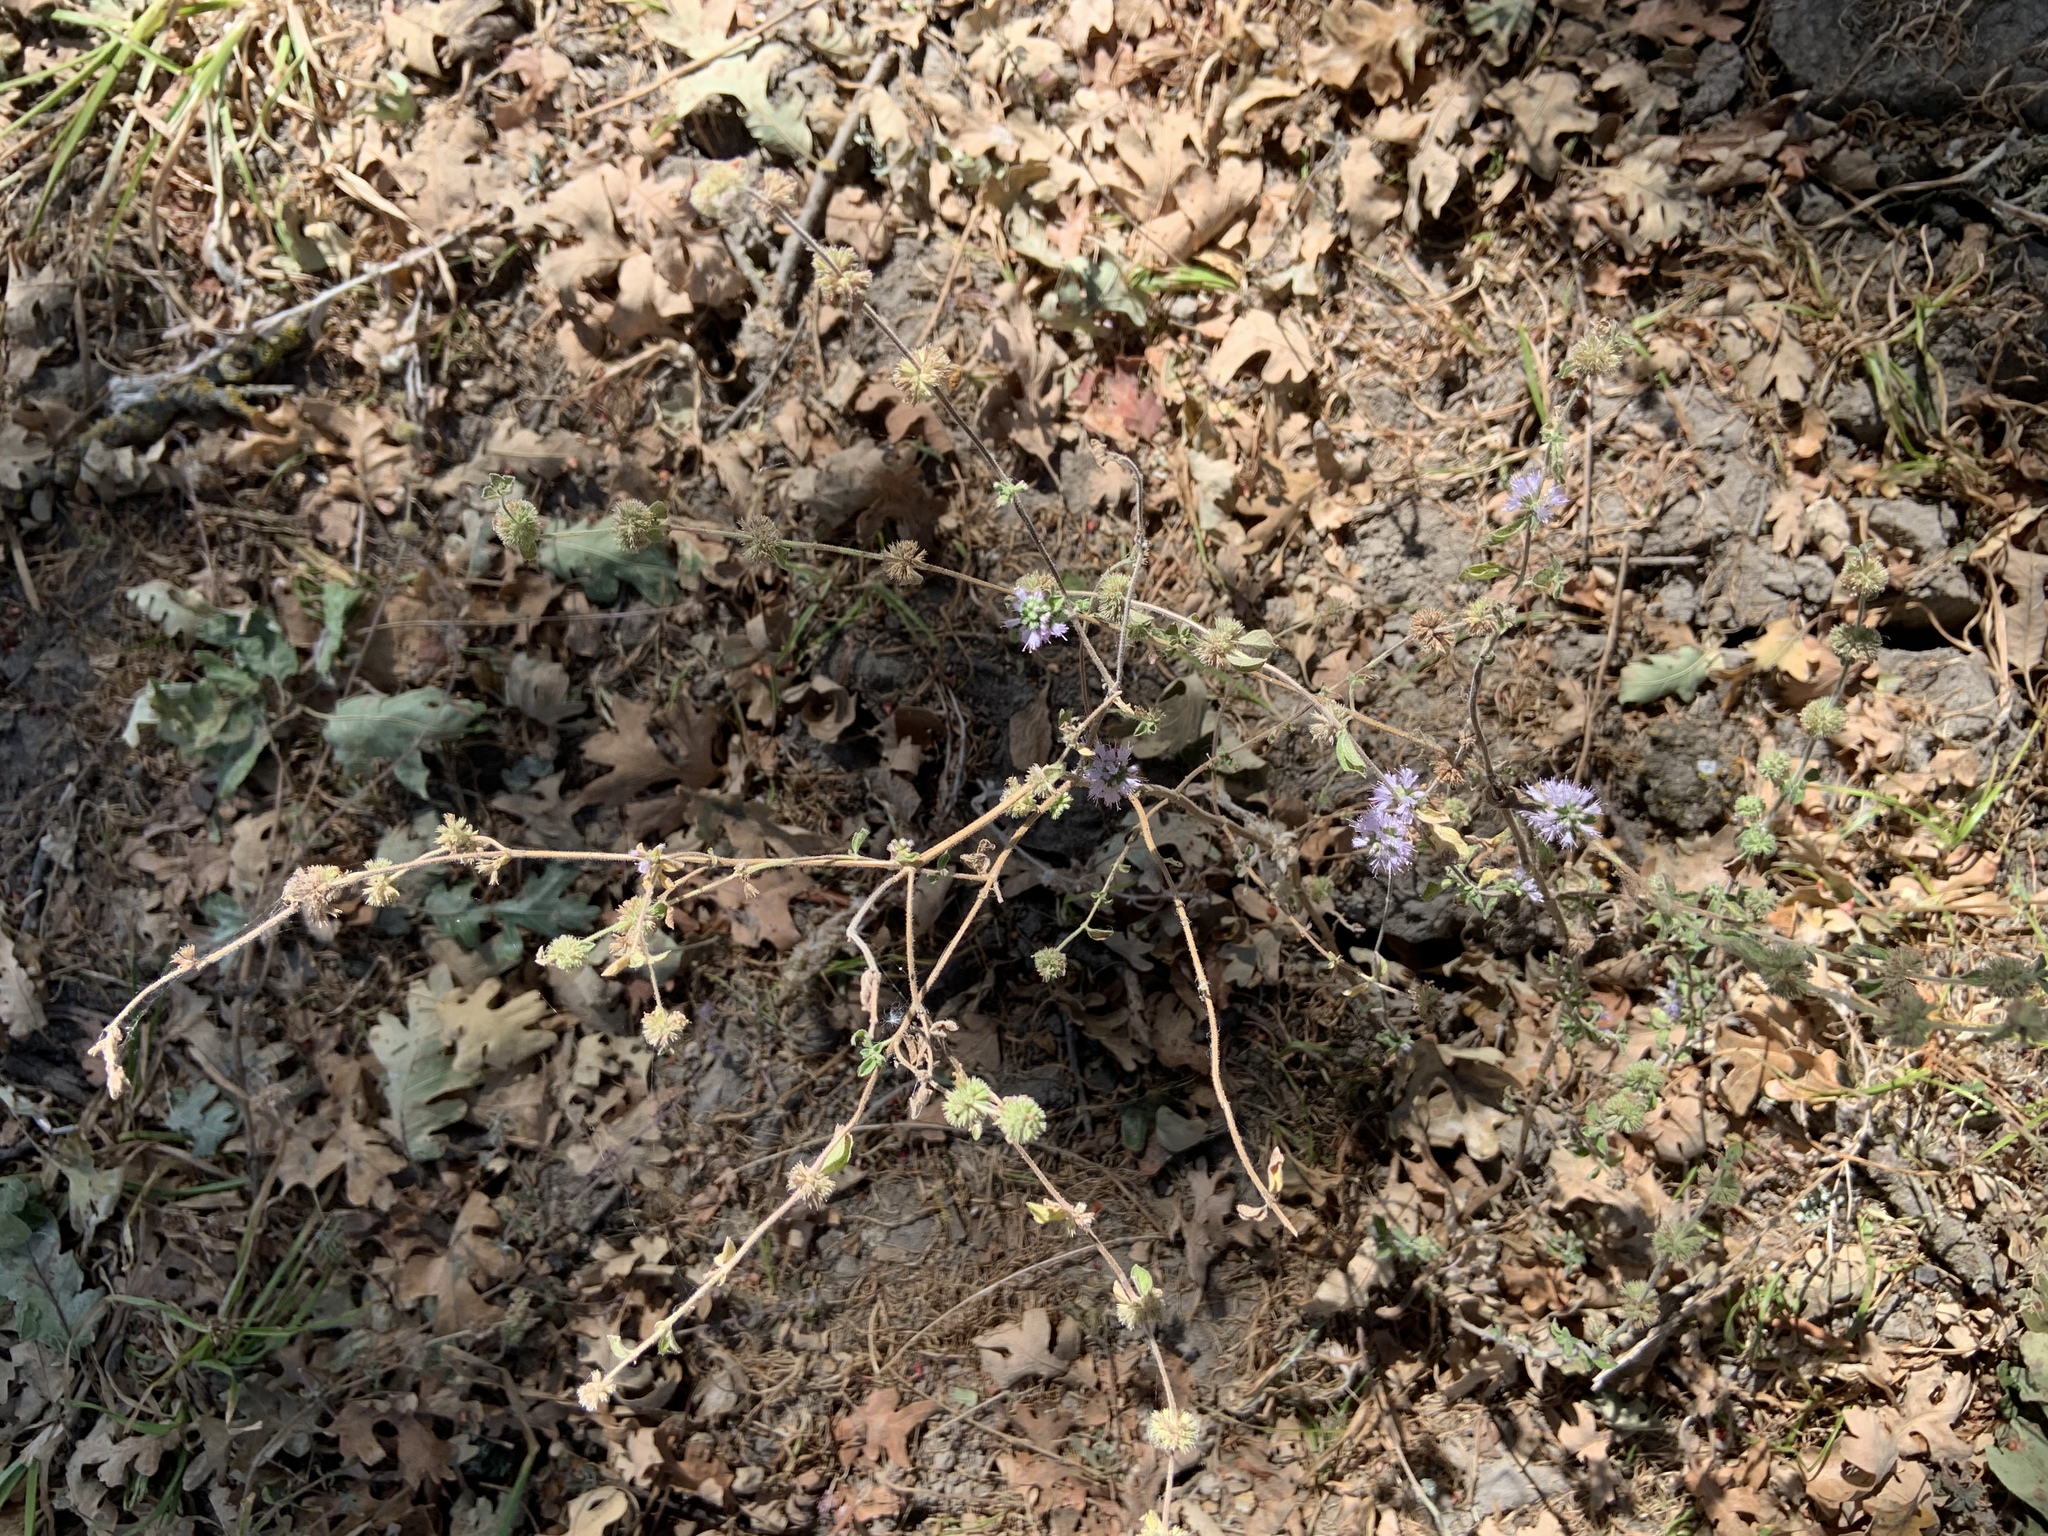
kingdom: Plantae
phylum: Tracheophyta
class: Magnoliopsida
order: Lamiales
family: Lamiaceae
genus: Mentha
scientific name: Mentha pulegium
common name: Pennyroyal
